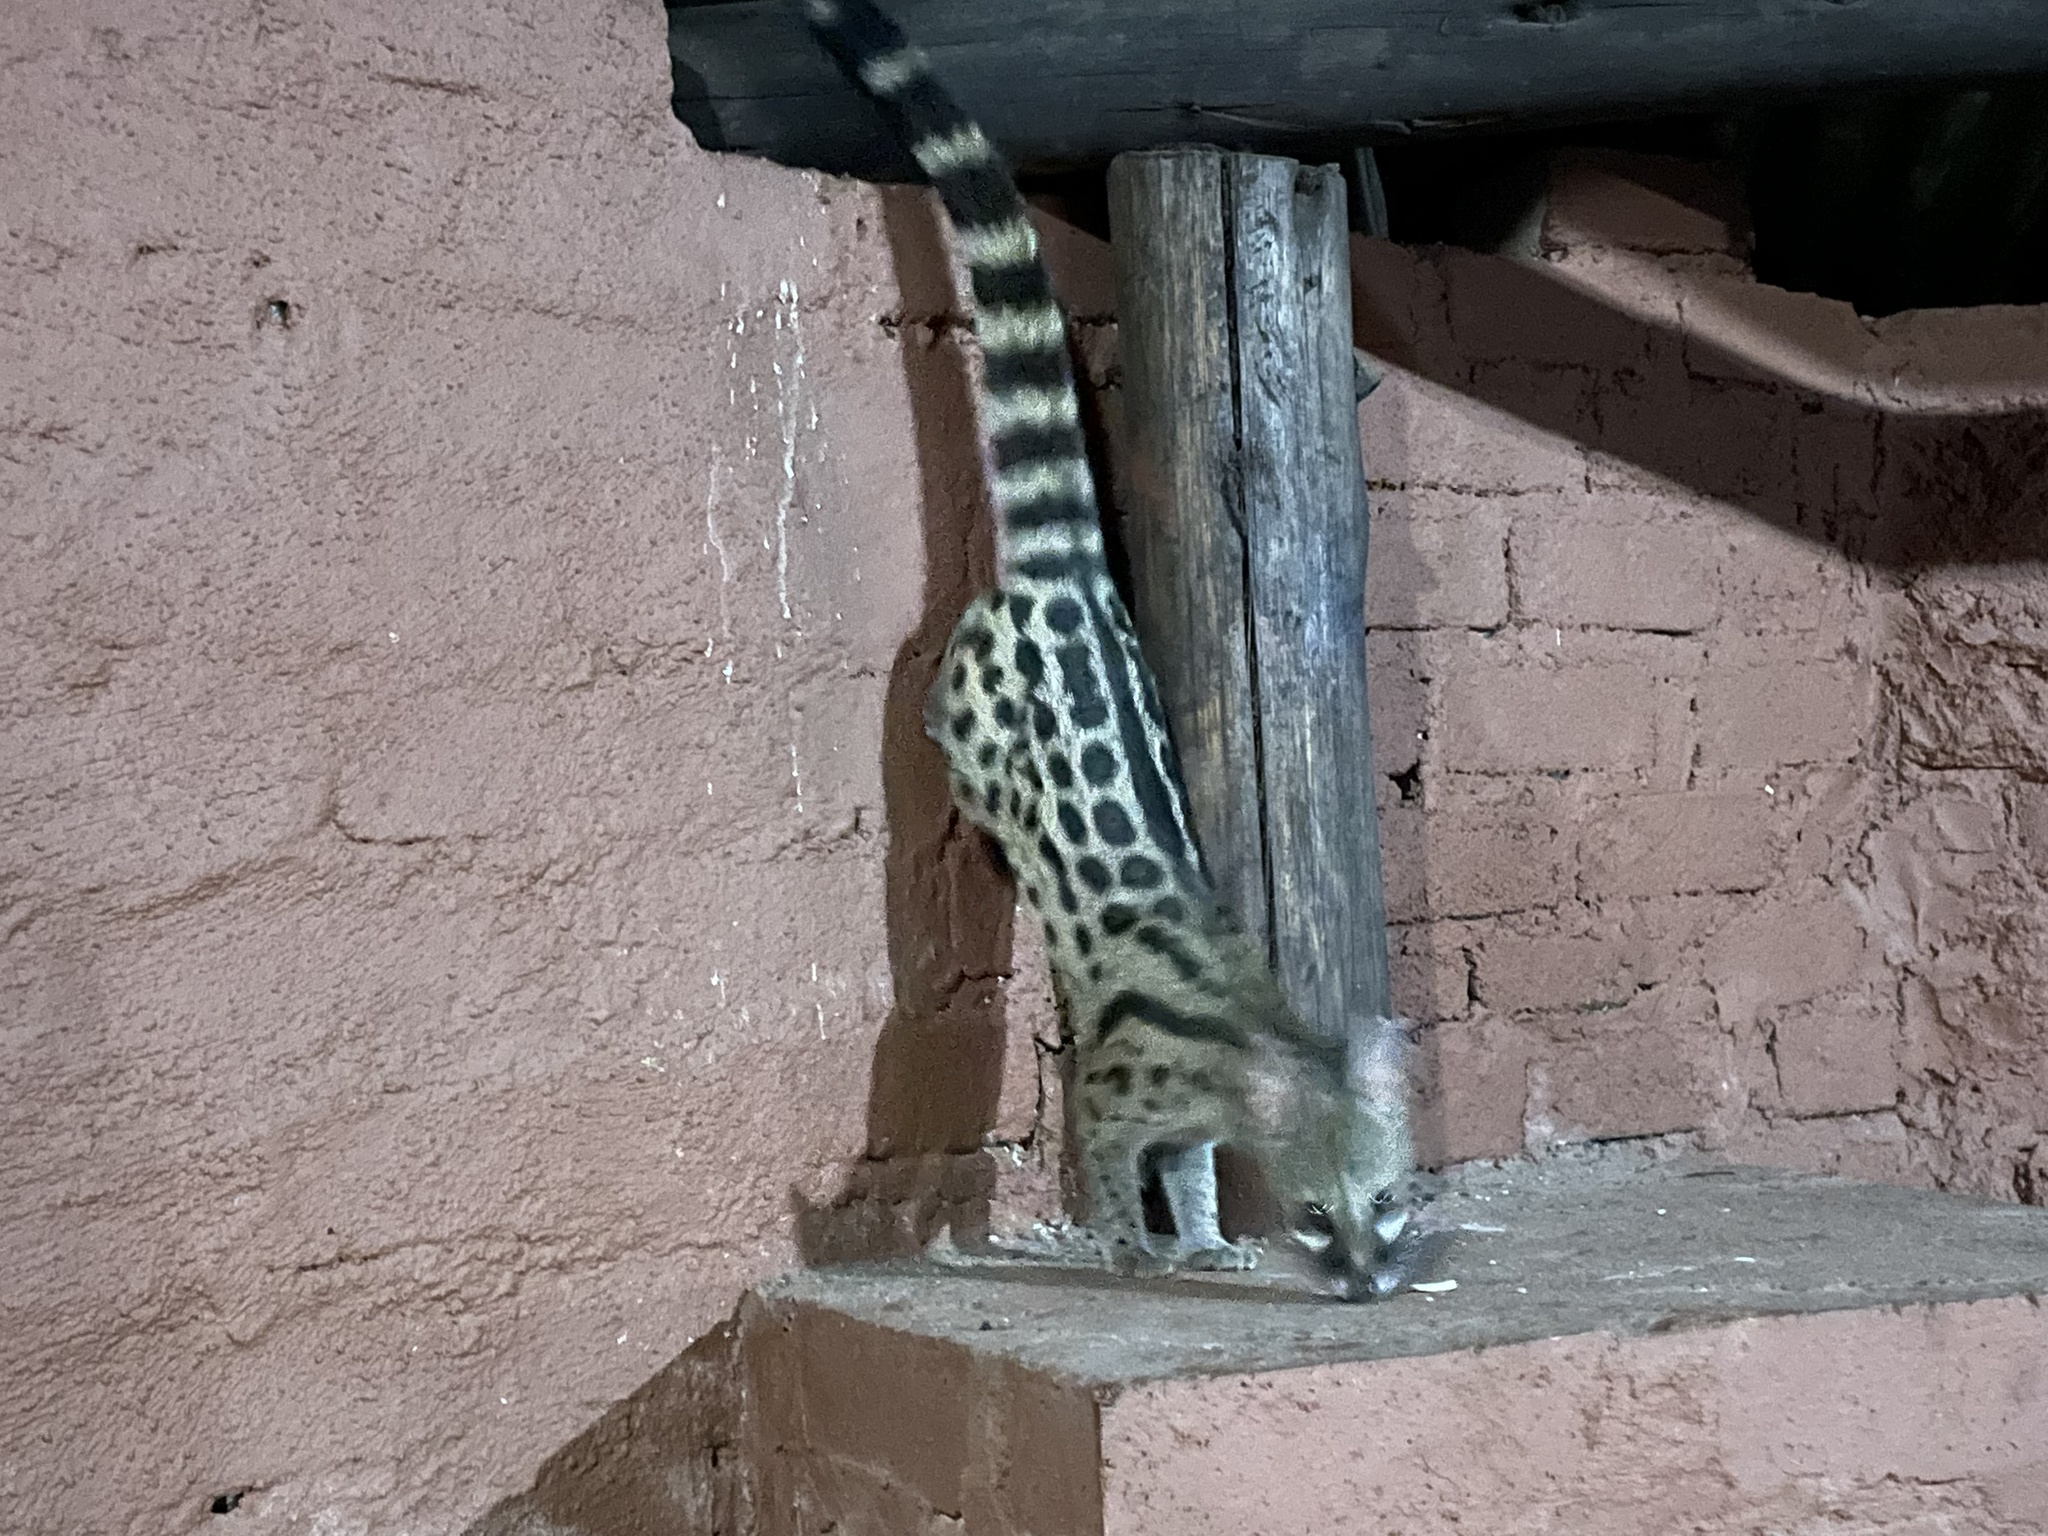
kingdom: Animalia
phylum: Chordata
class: Mammalia
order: Carnivora
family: Viverridae
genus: Genetta
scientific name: Genetta maculata
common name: Rusty-spotted genet
